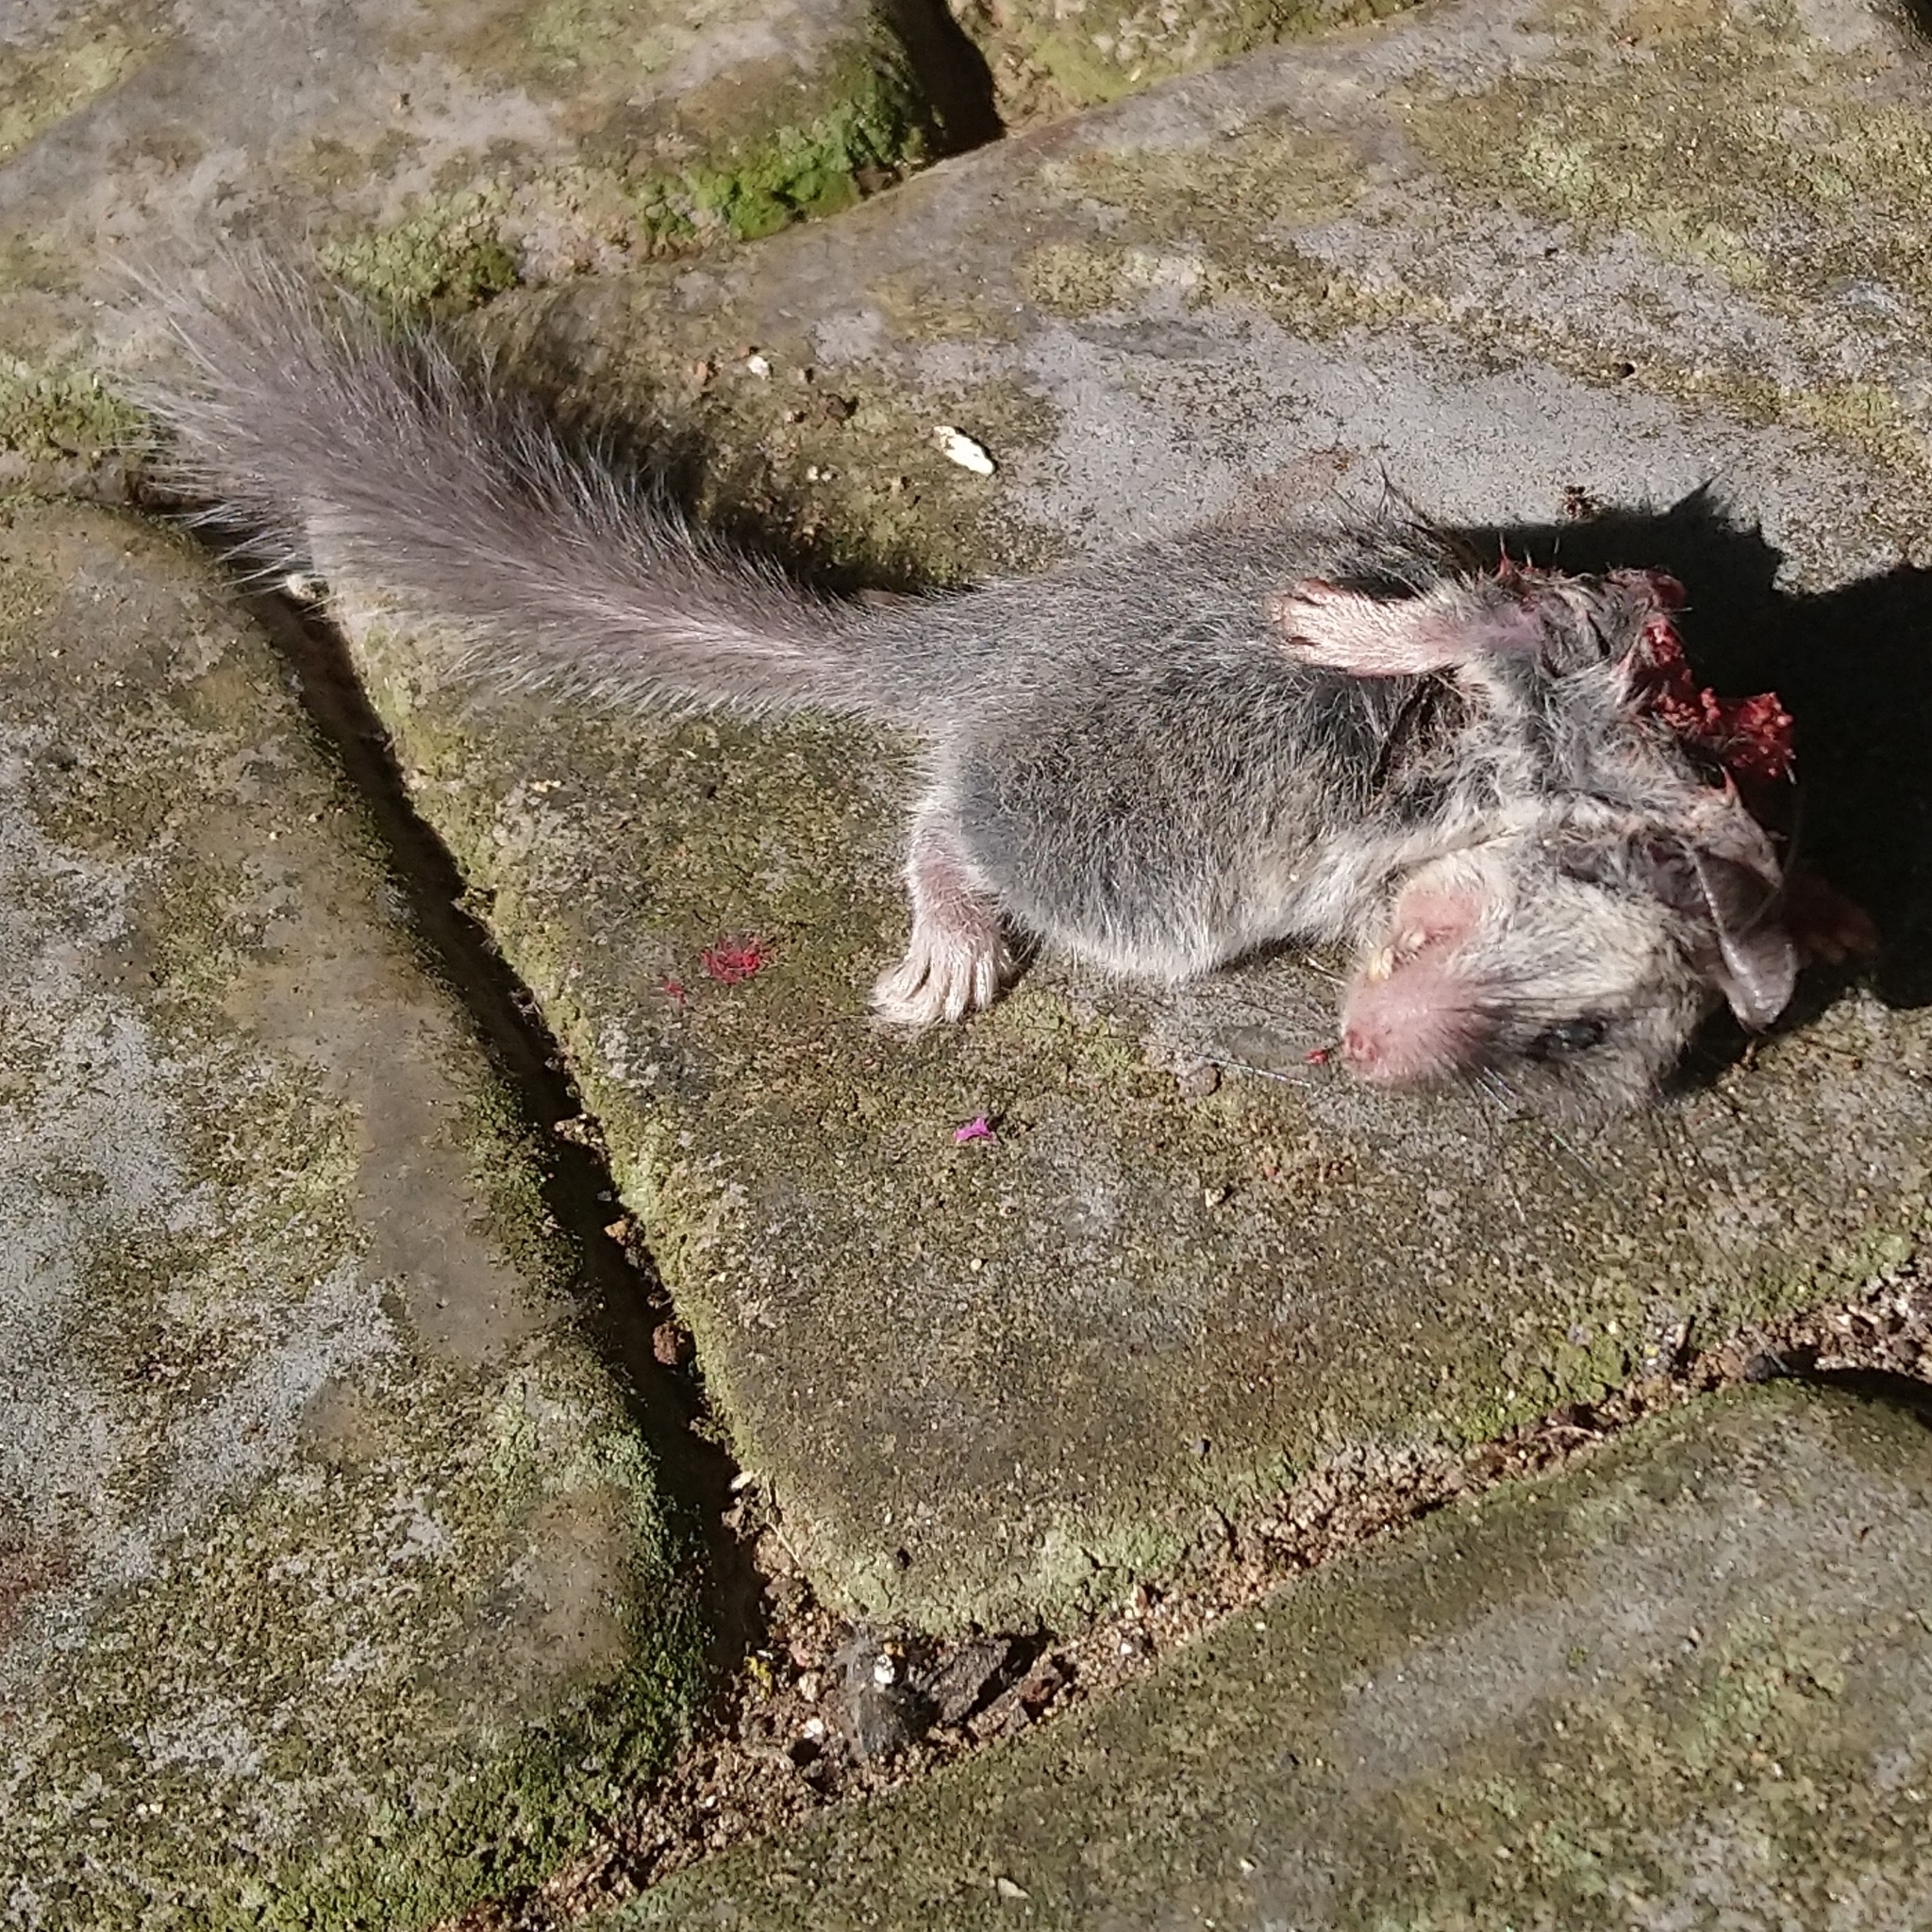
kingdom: Animalia
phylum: Chordata
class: Mammalia
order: Rodentia
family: Gliridae
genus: Graphiurus
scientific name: Graphiurus murinus
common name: Forest african dormouse
